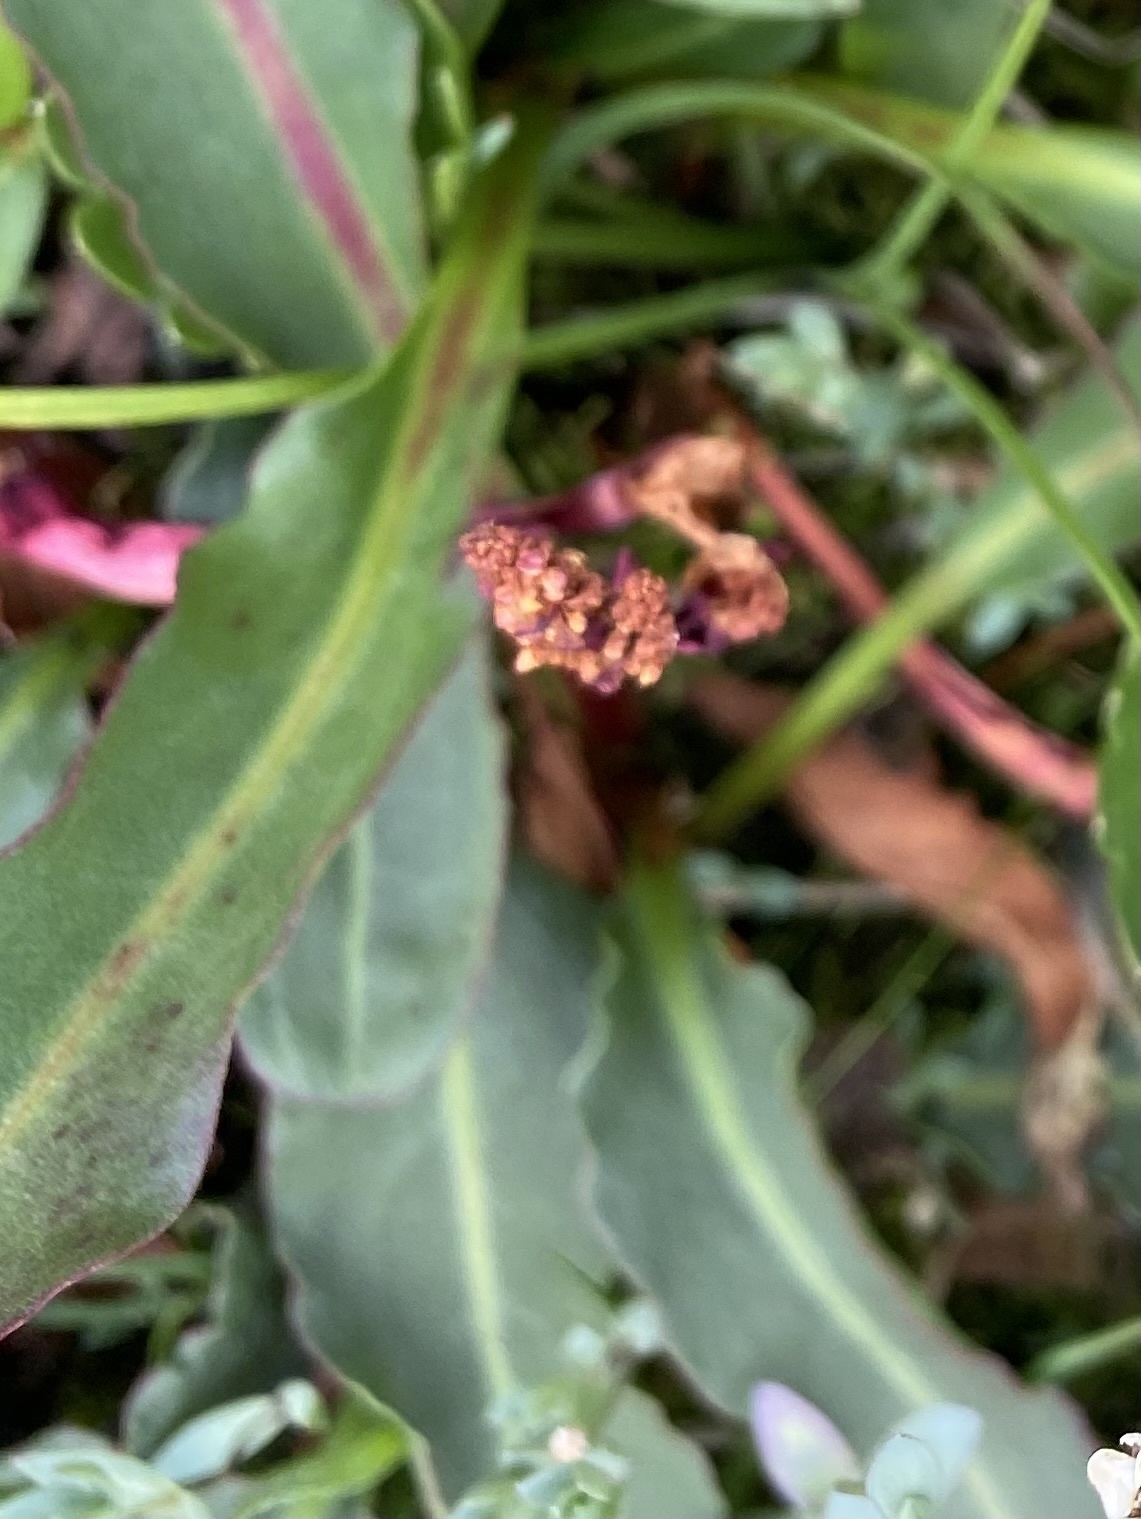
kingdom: Plantae
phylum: Tracheophyta
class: Magnoliopsida
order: Caryophyllales
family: Polygonaceae
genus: Rumex
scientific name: Rumex arcticus
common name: Arctic dock
